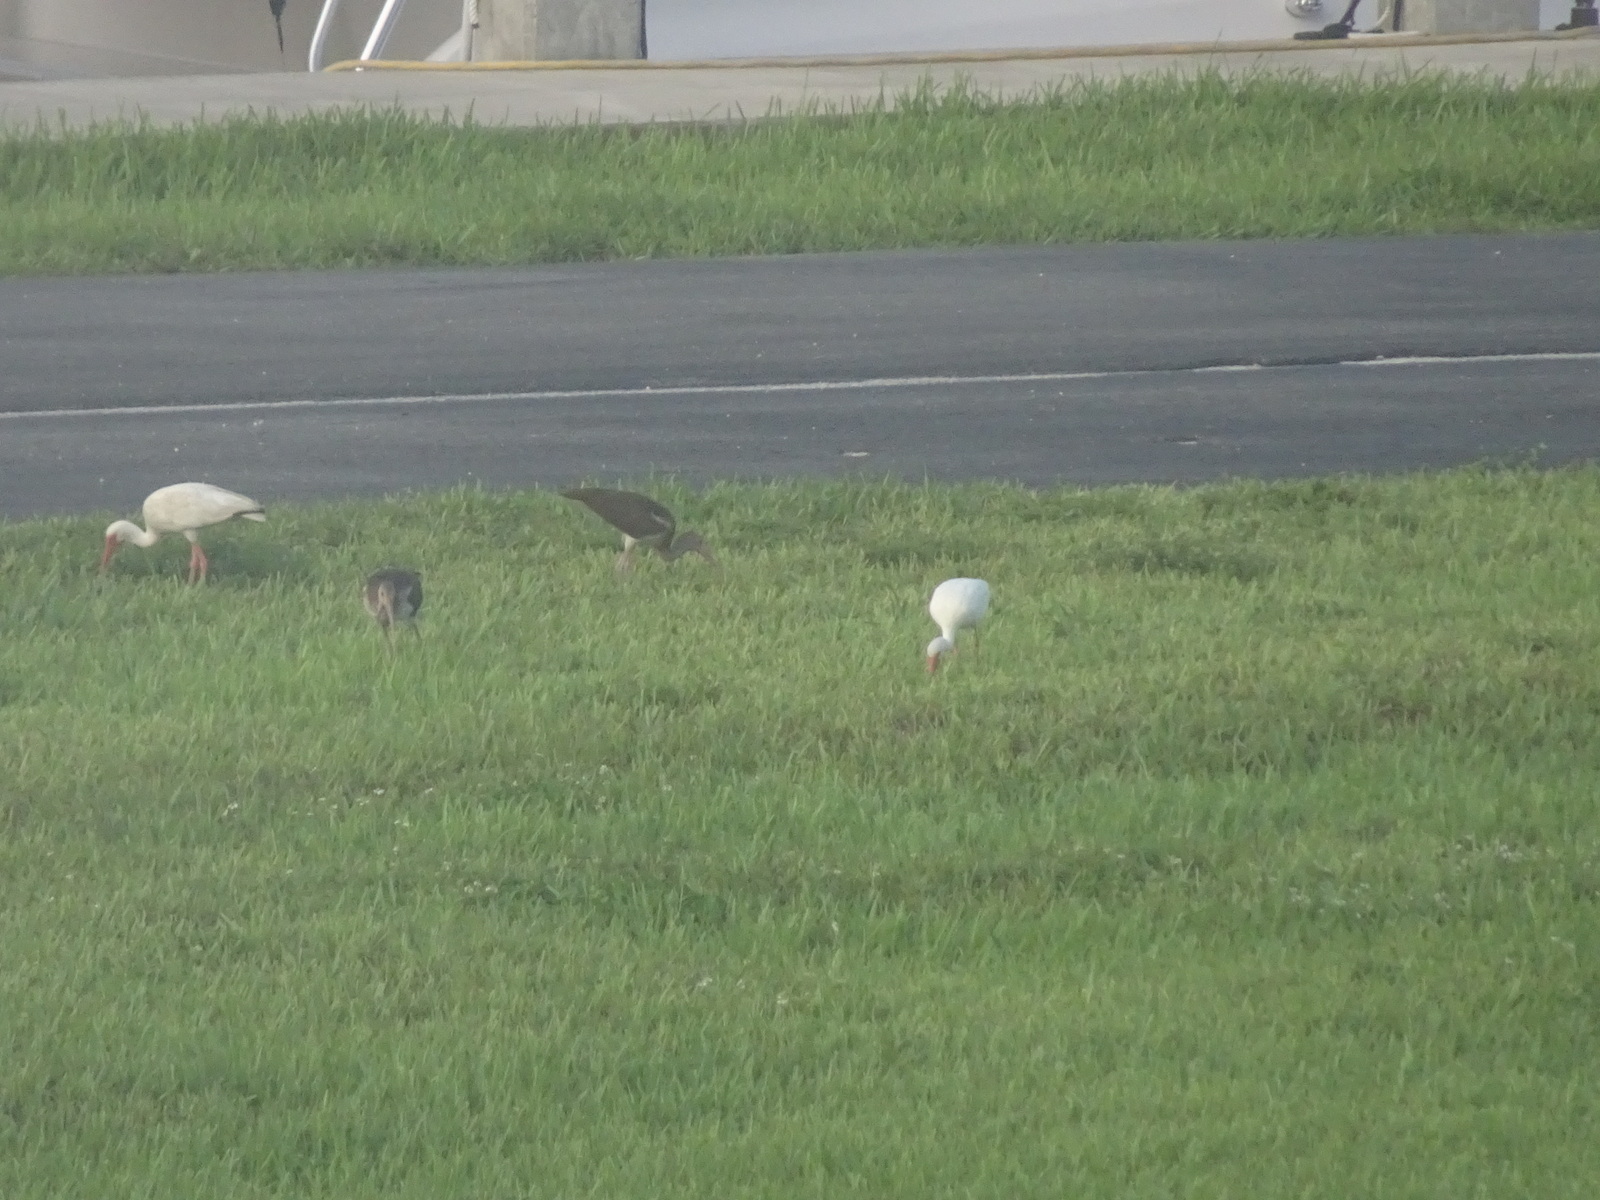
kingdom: Animalia
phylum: Chordata
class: Aves
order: Pelecaniformes
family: Threskiornithidae
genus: Eudocimus
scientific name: Eudocimus albus
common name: White ibis
